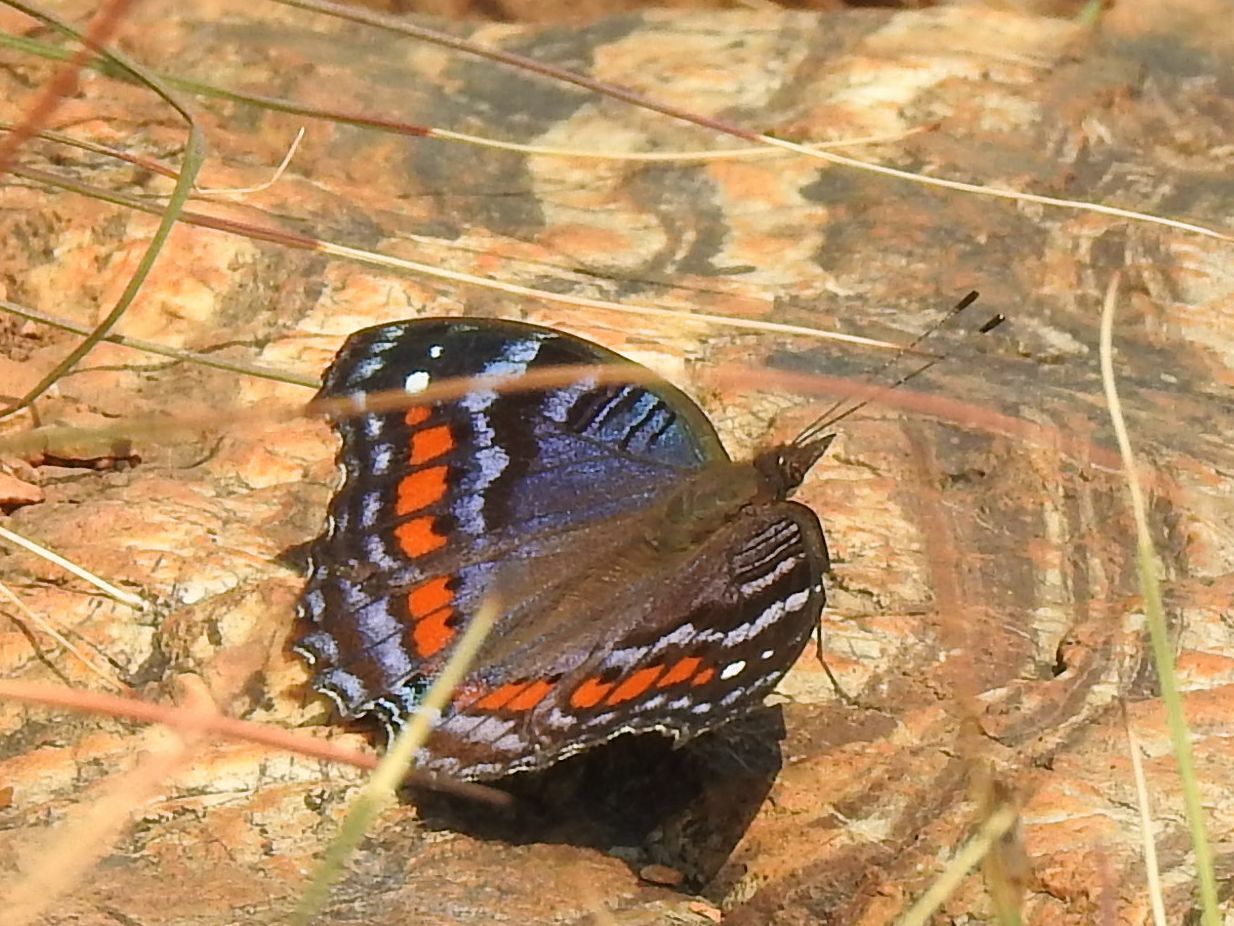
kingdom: Animalia
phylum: Arthropoda
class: Insecta
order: Lepidoptera
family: Nymphalidae
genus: Precis
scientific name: Precis octavia
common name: Gaudy commodore
